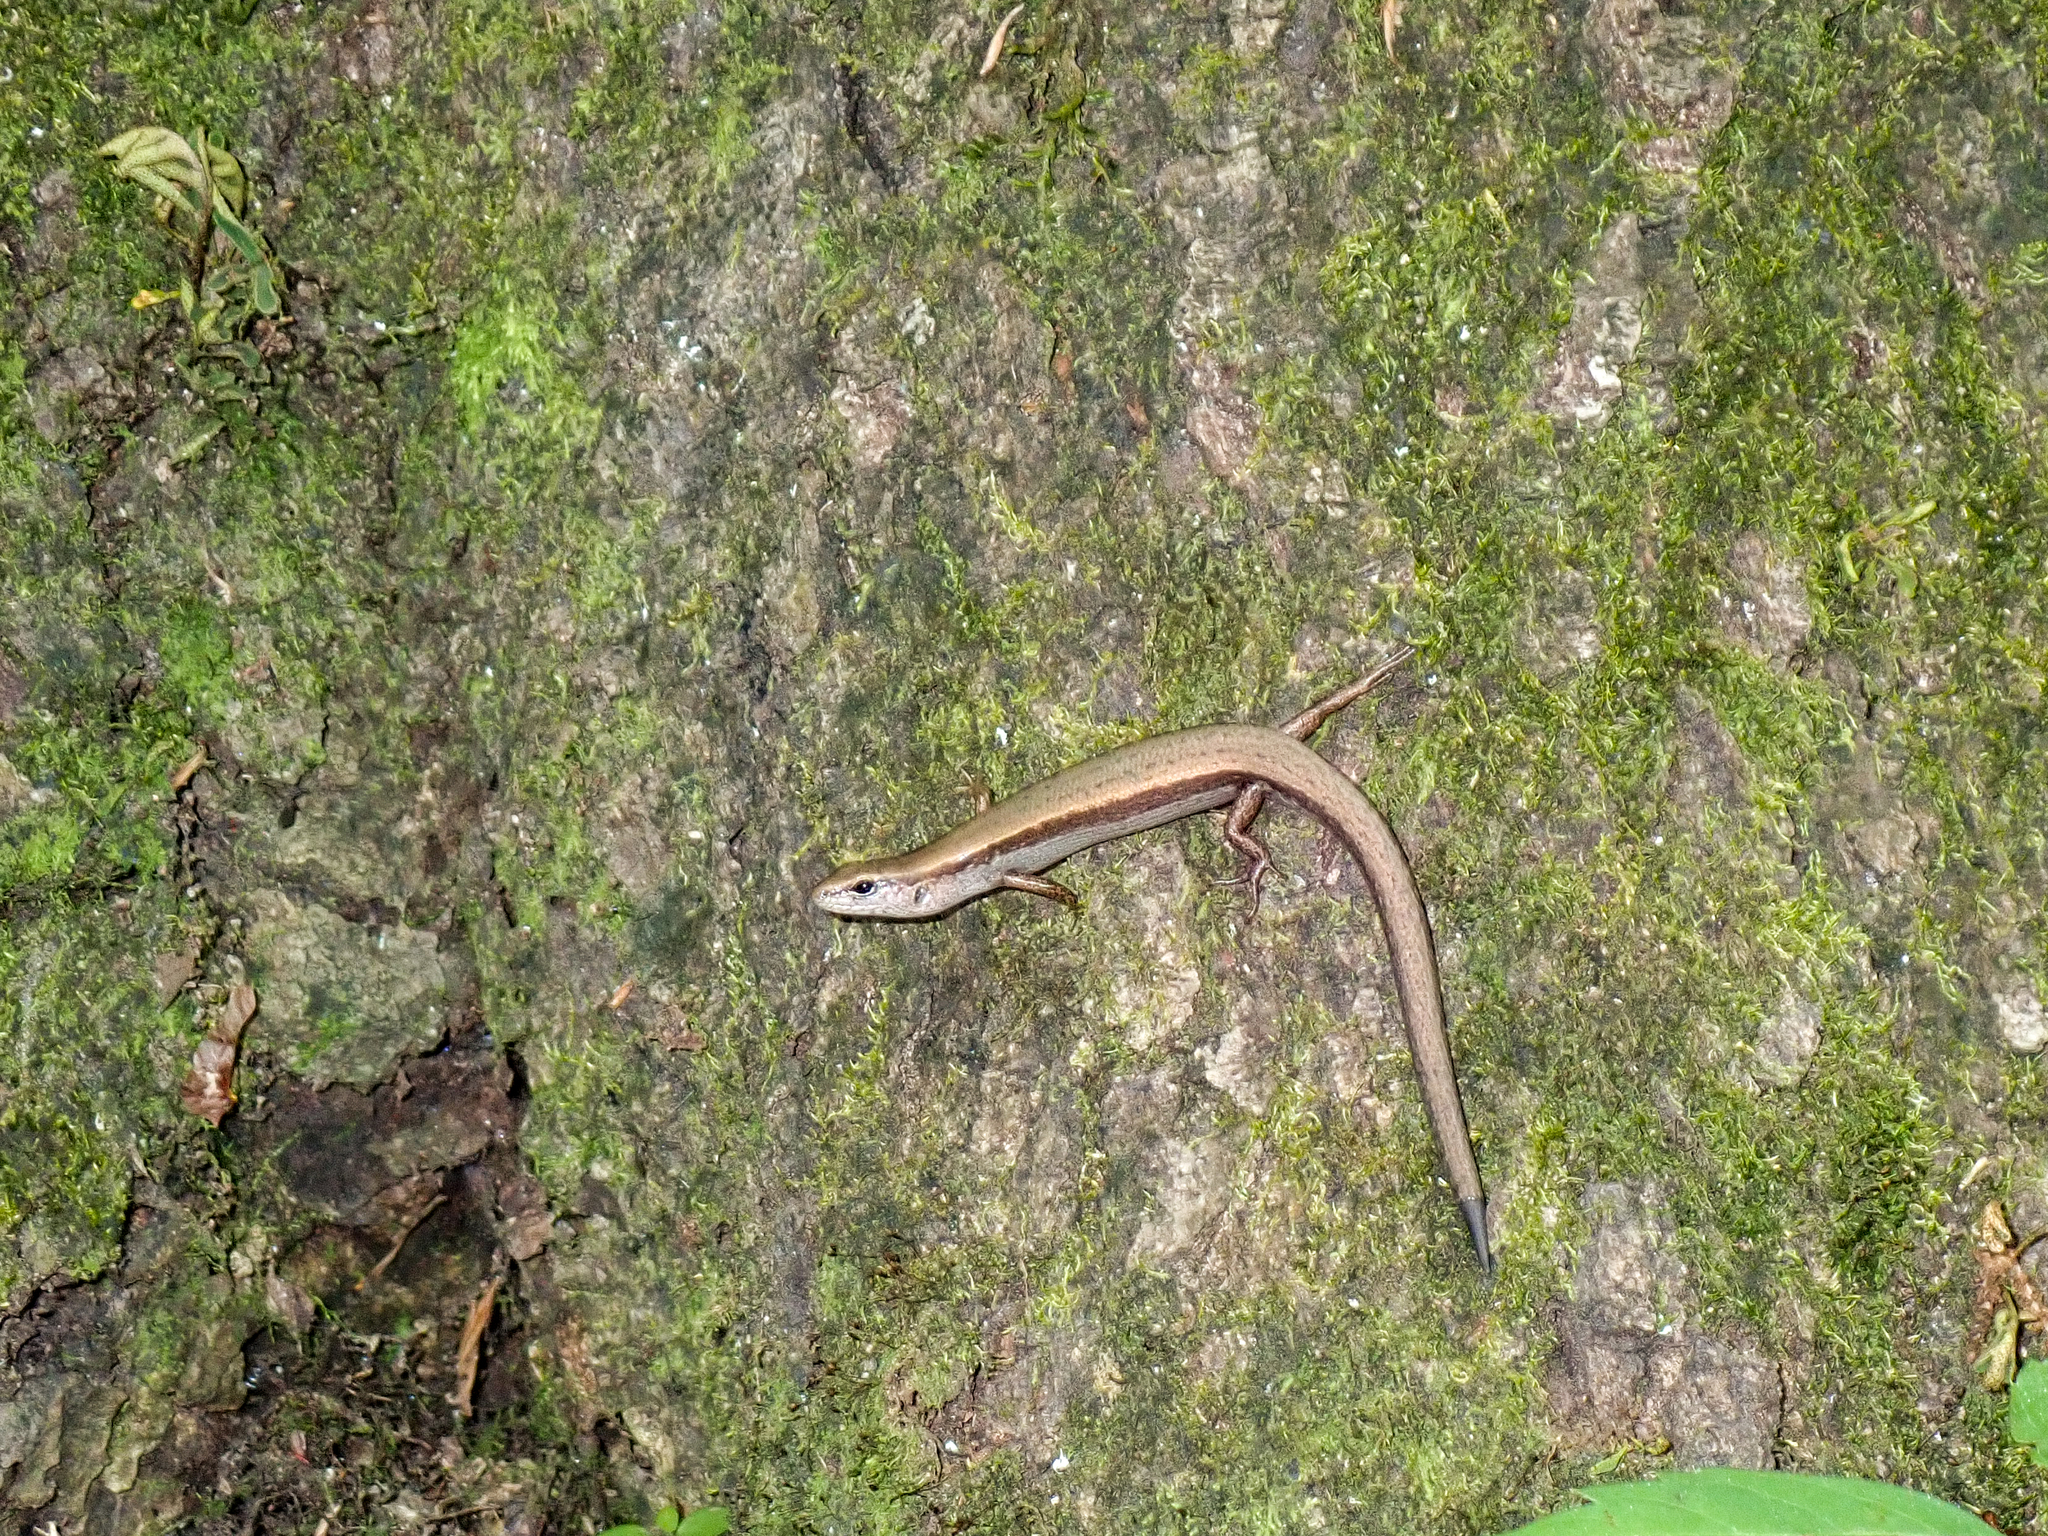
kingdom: Animalia
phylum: Chordata
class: Squamata
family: Scincidae
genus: Scincella
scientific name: Scincella lateralis
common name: Ground skink
